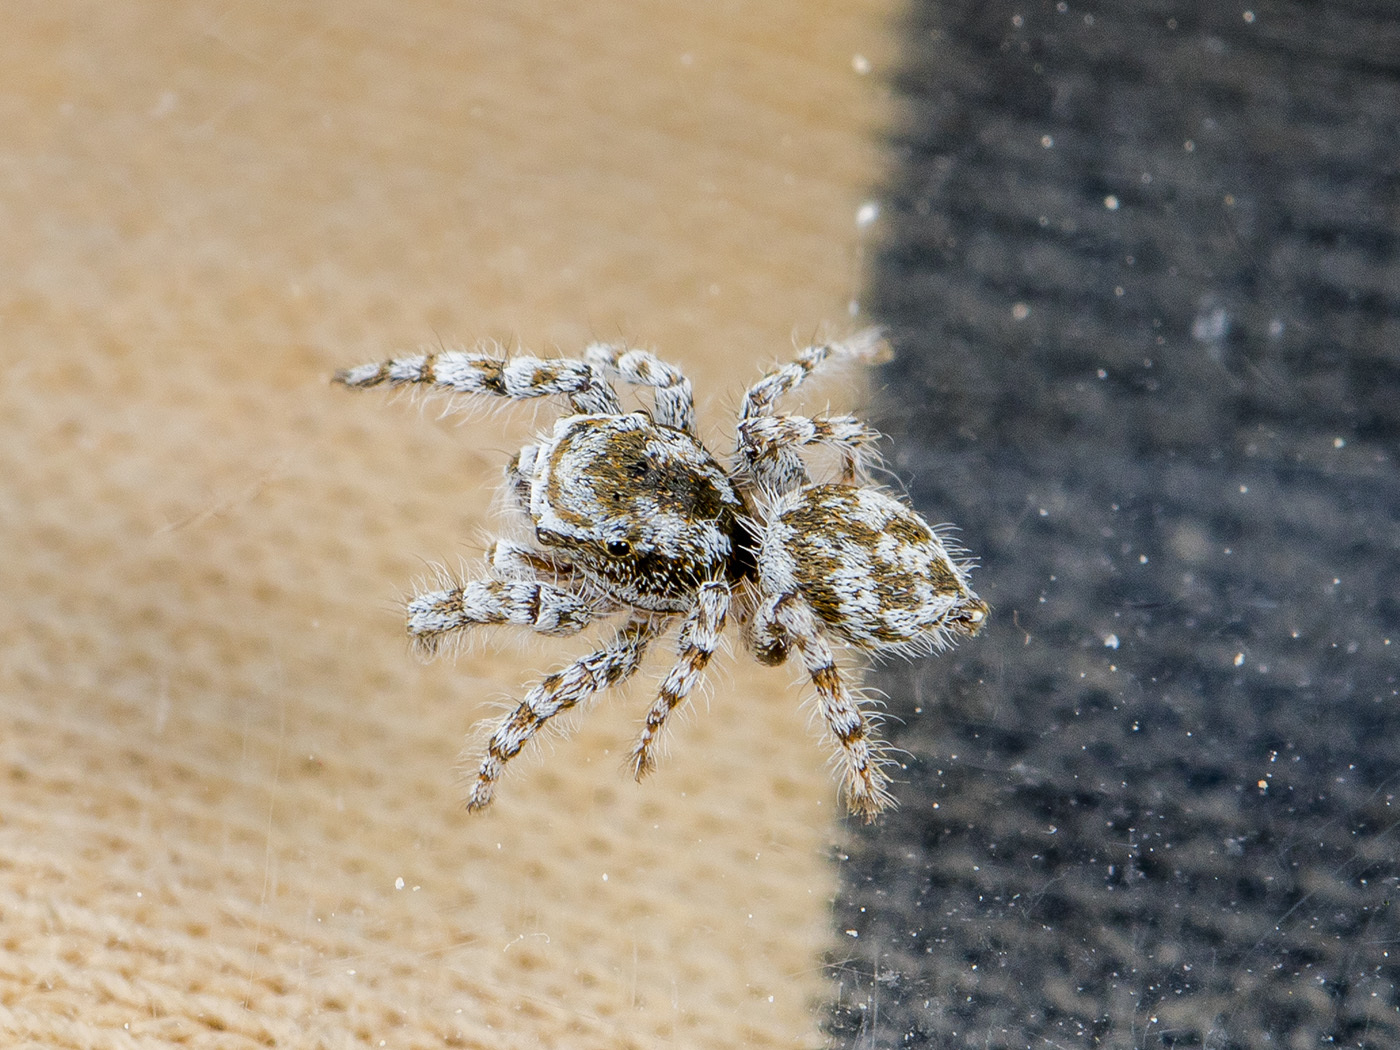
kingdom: Animalia
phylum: Arthropoda
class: Arachnida
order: Araneae
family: Salticidae
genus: Pseudomogrus
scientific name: Pseudomogrus dalaensis
